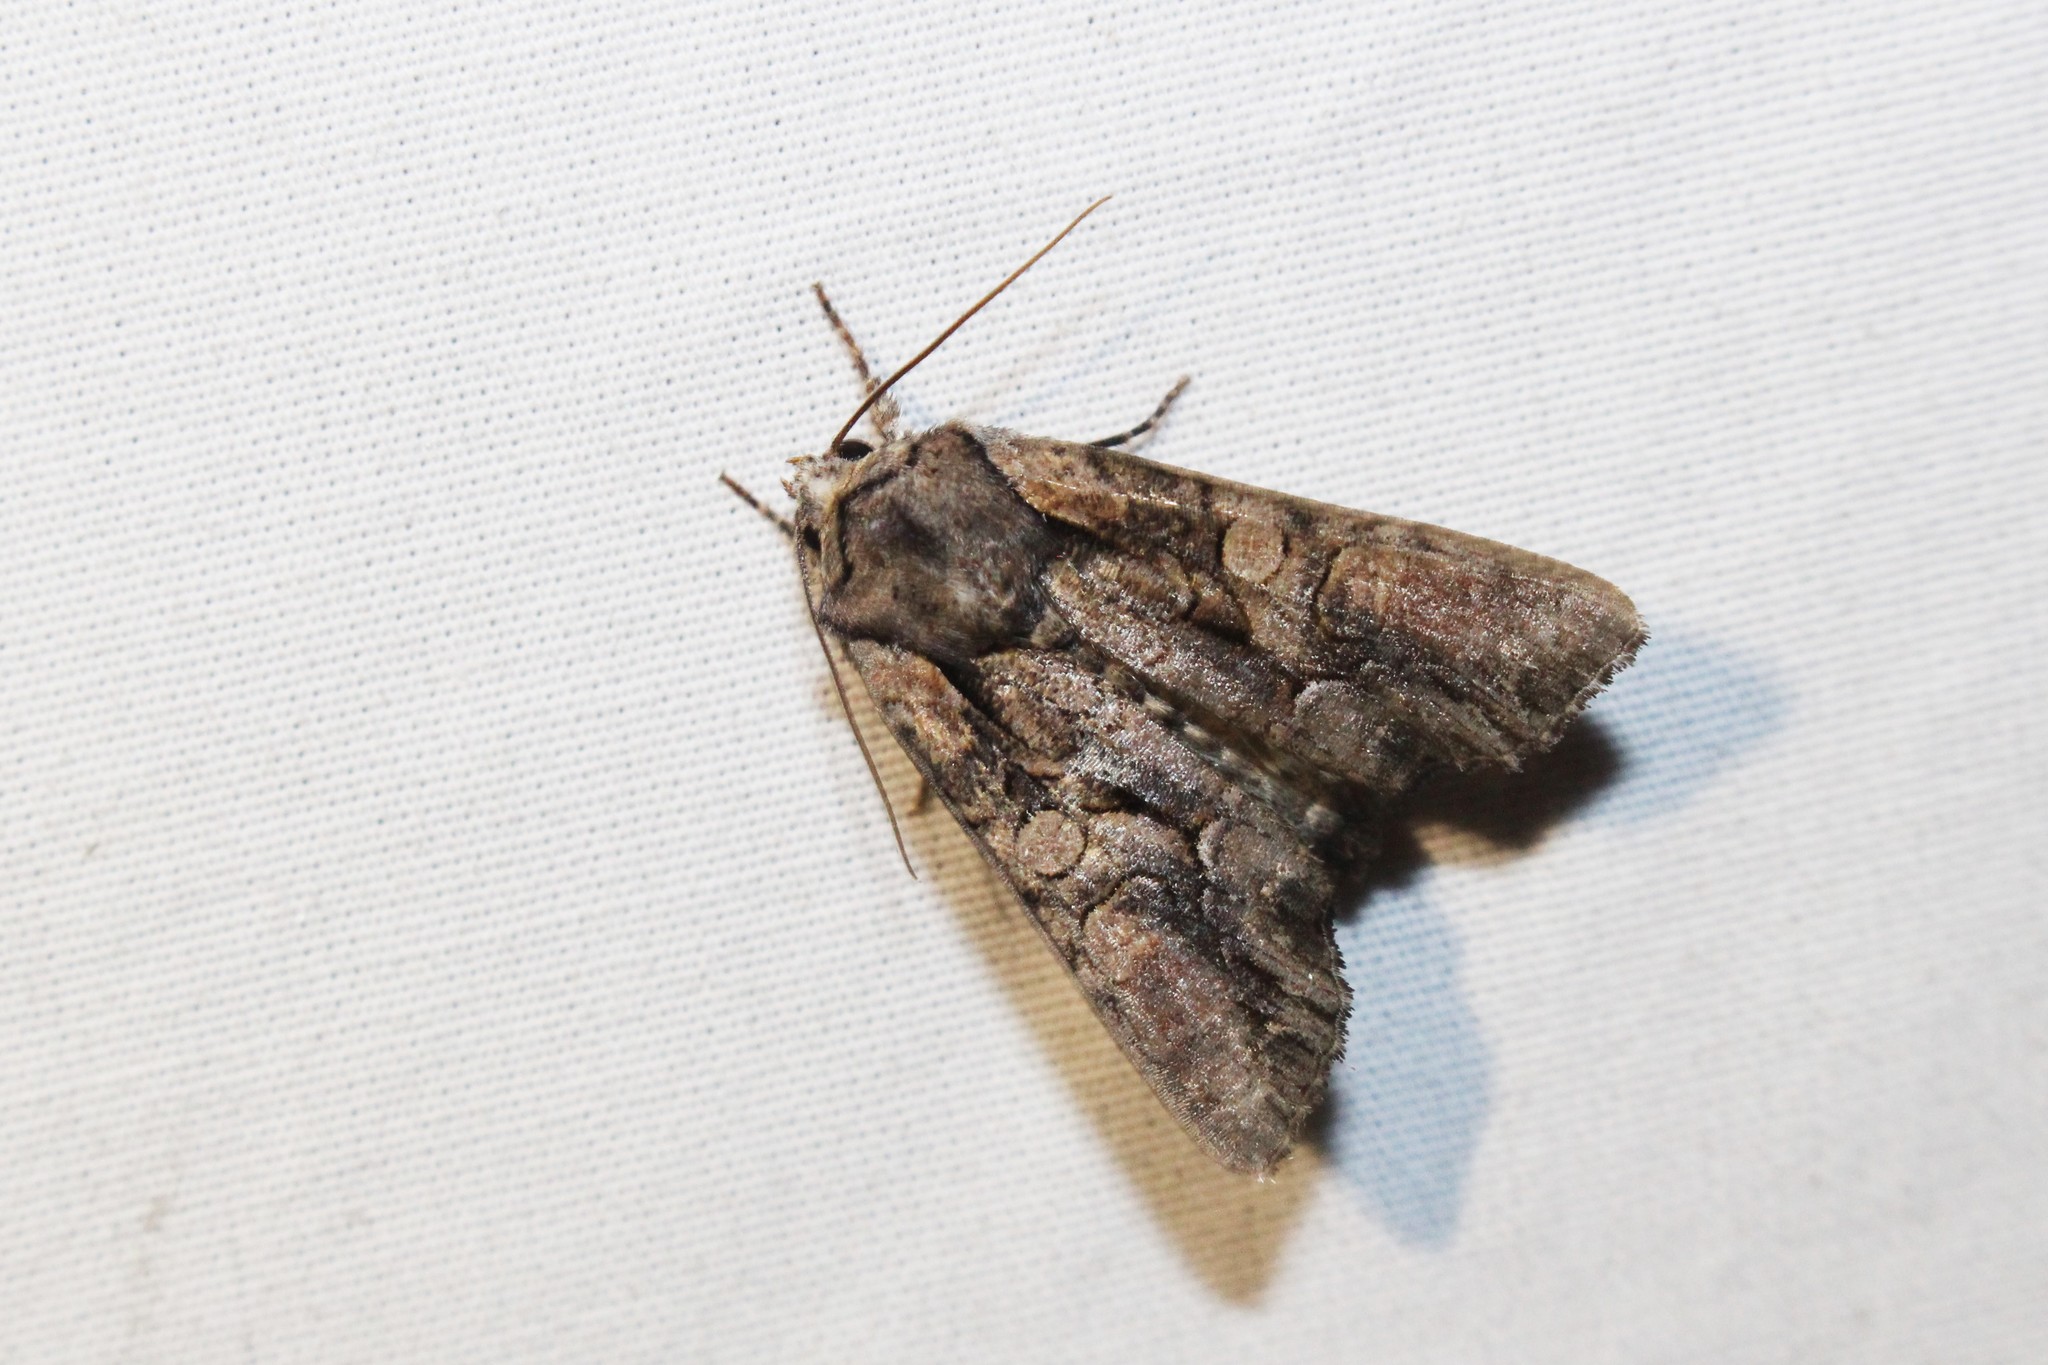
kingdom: Animalia
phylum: Arthropoda
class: Insecta
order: Lepidoptera
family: Noctuidae
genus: Lacanobia
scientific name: Lacanobia subjuncta
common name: Speckled cutworm moth
